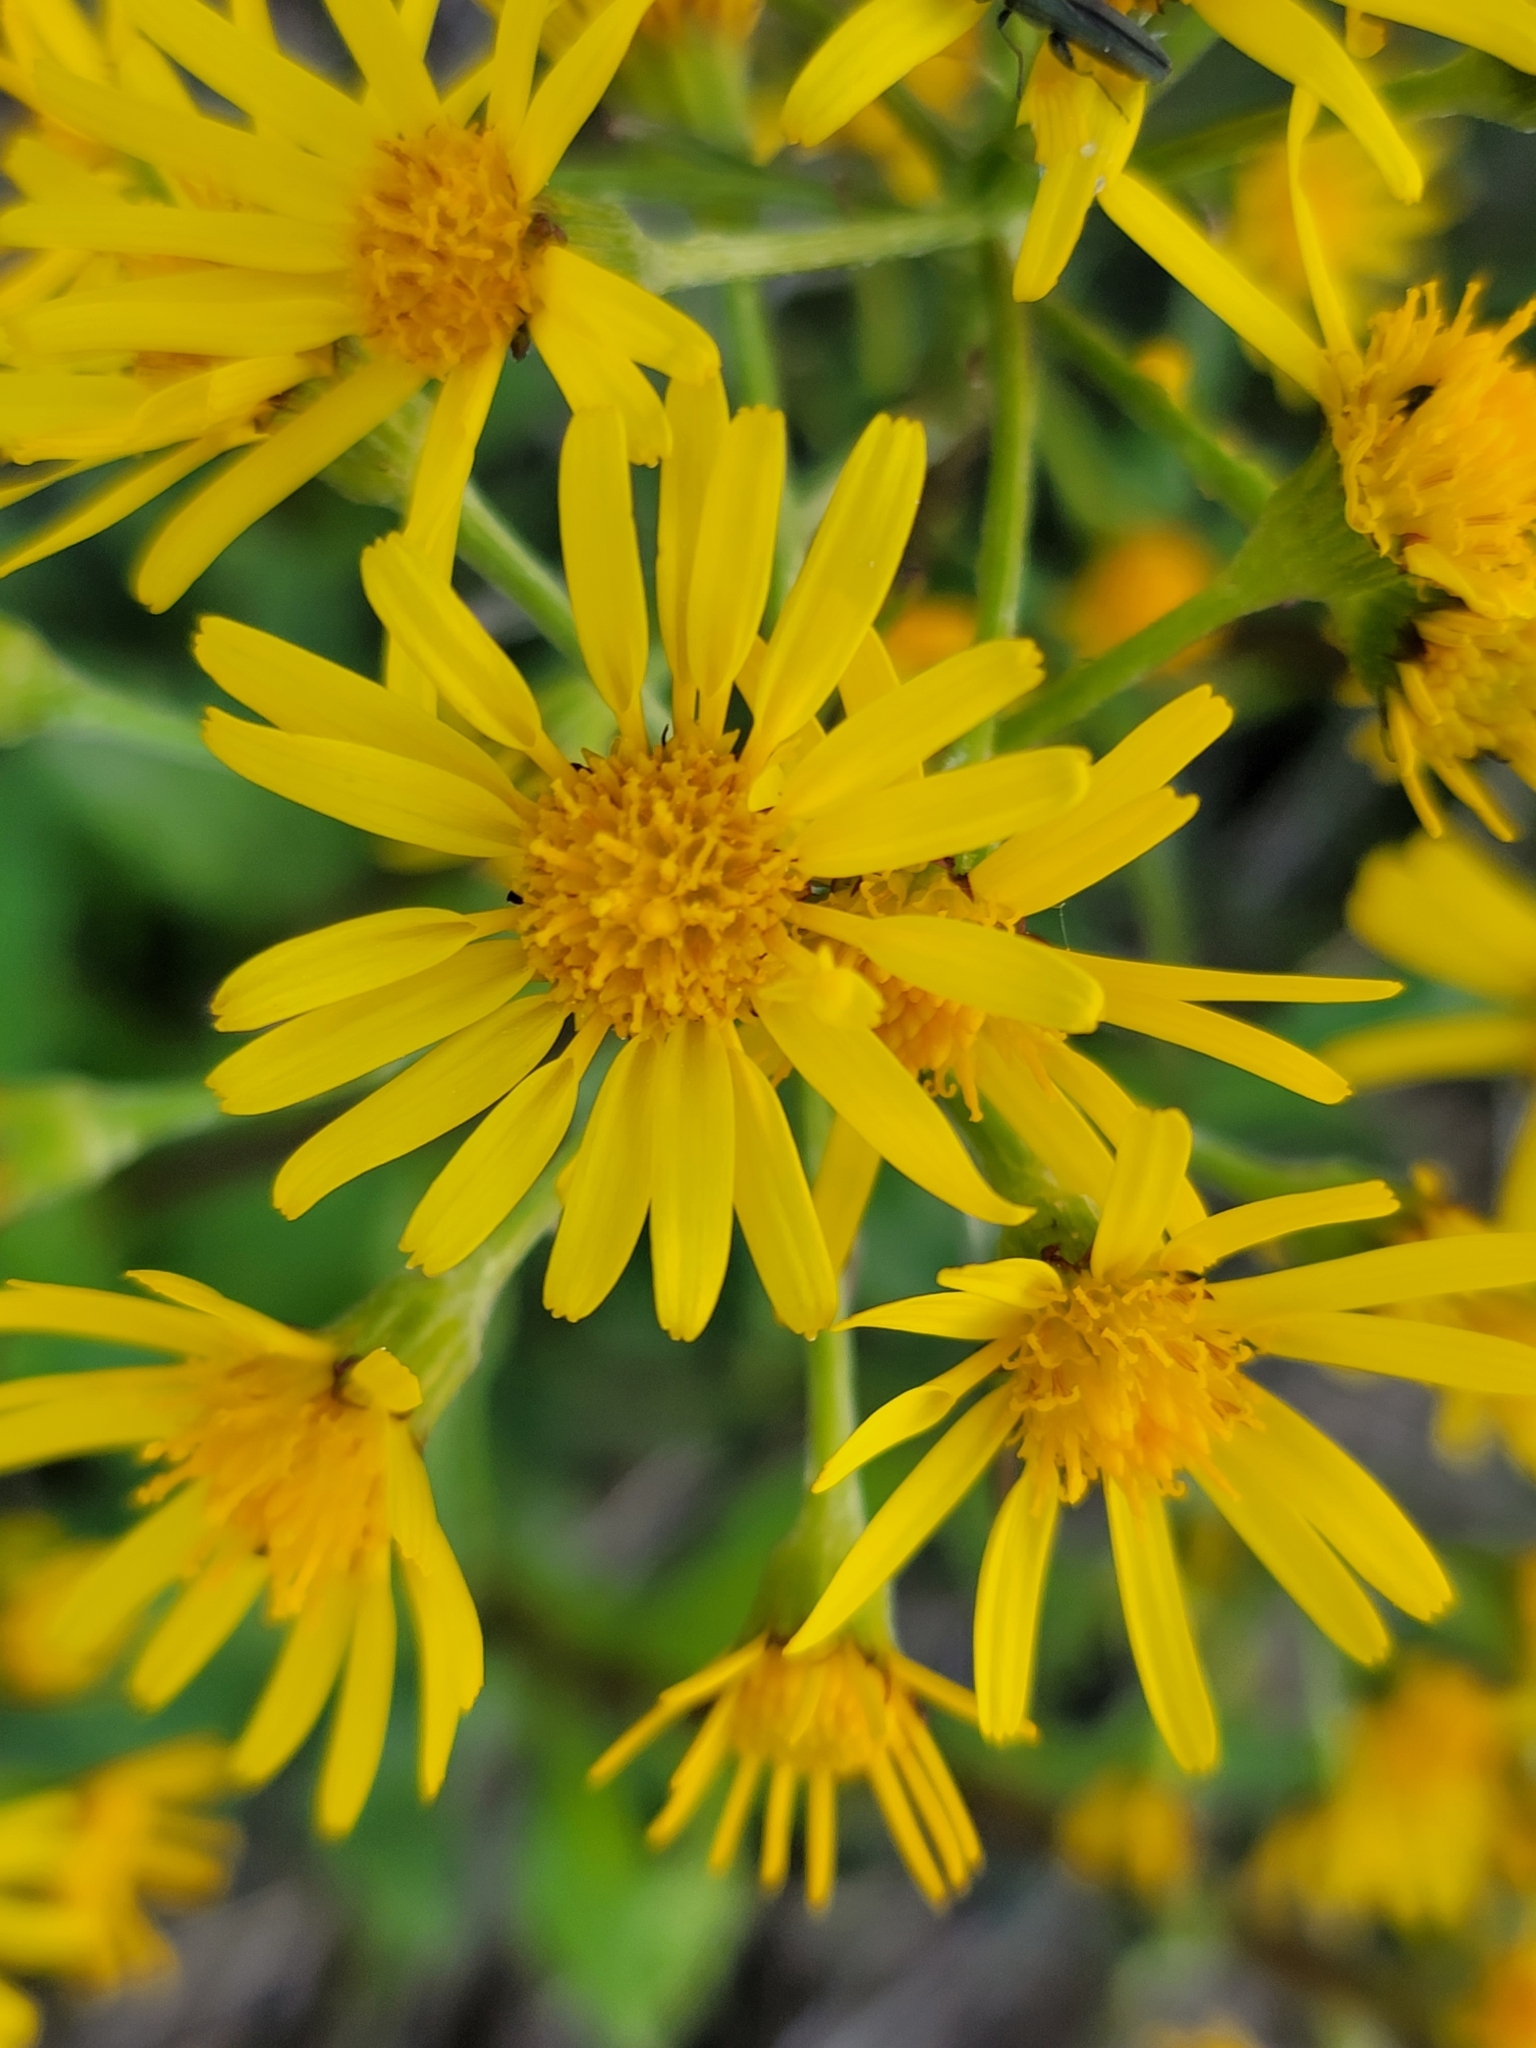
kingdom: Plantae
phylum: Tracheophyta
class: Magnoliopsida
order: Asterales
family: Asteraceae
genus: Tephroseris
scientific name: Tephroseris crispa
